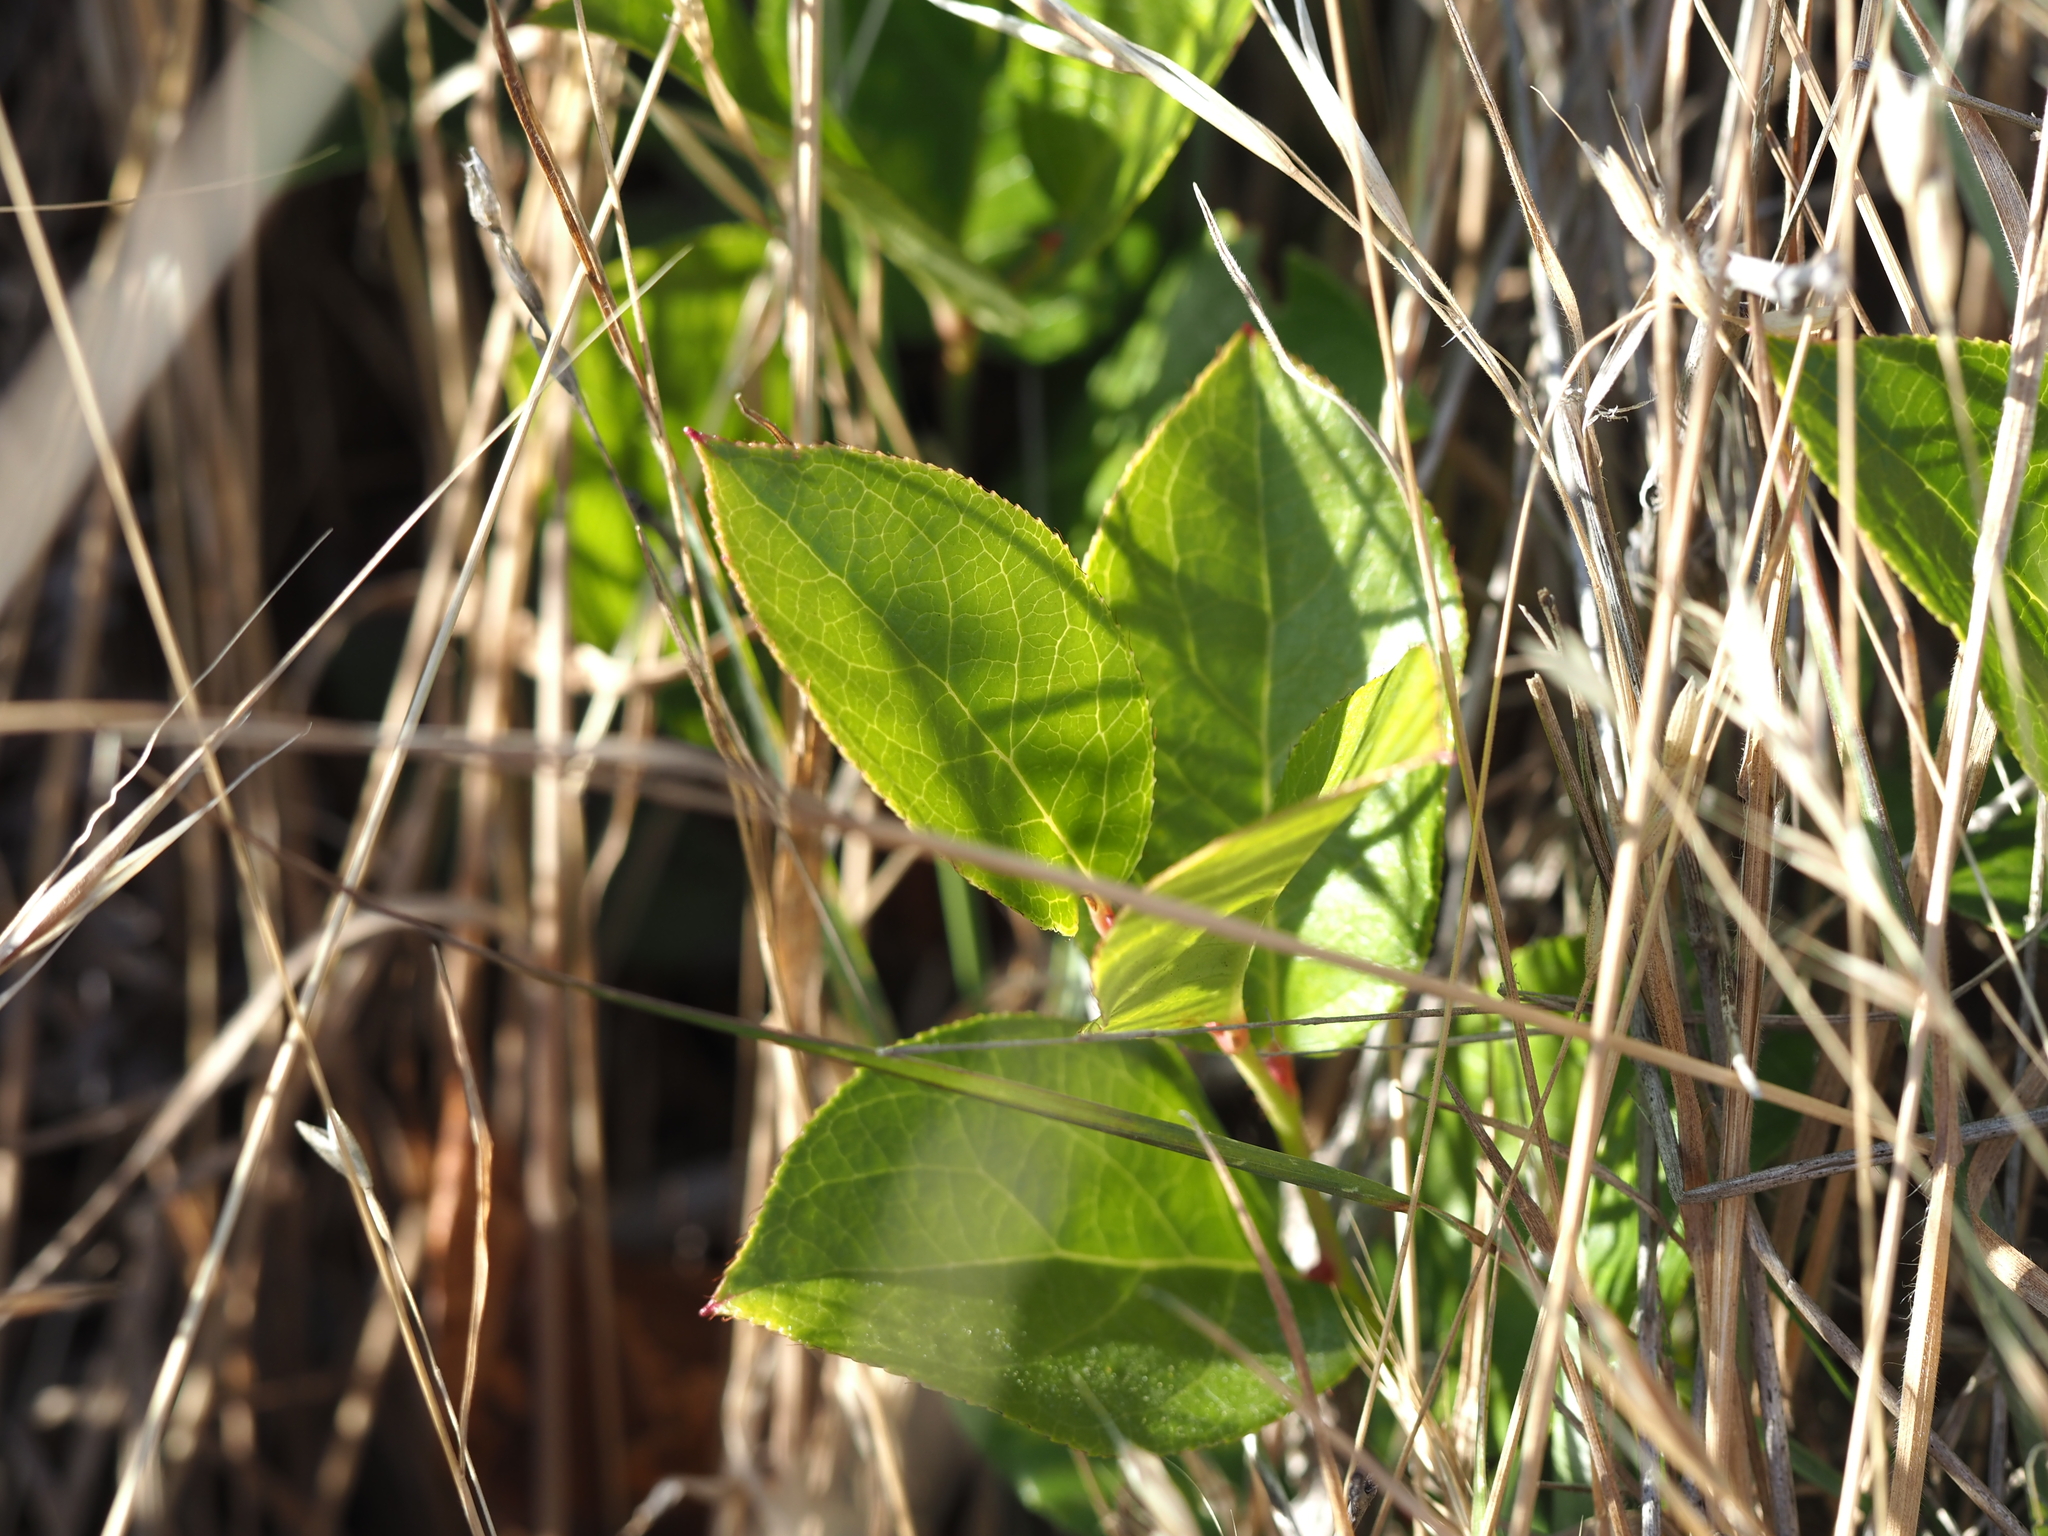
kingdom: Plantae
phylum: Tracheophyta
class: Magnoliopsida
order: Ericales
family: Ericaceae
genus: Gaultheria
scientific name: Gaultheria shallon
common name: Shallon
